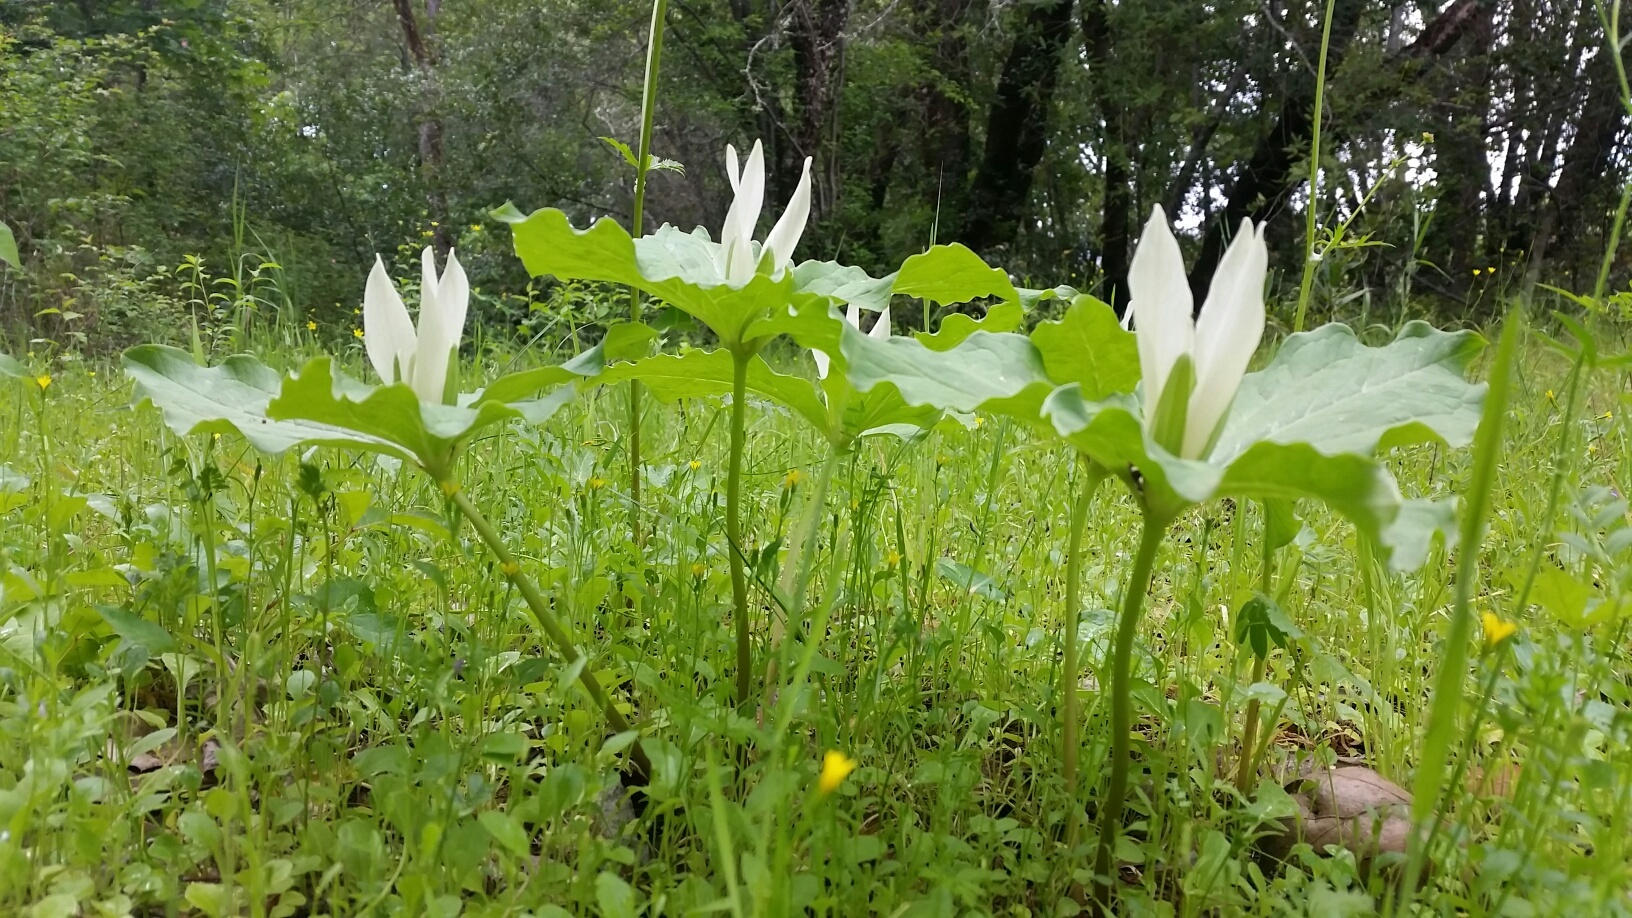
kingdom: Plantae
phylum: Tracheophyta
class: Liliopsida
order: Liliales
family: Melanthiaceae
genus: Trillium
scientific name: Trillium albidum
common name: Freeman's trillium
